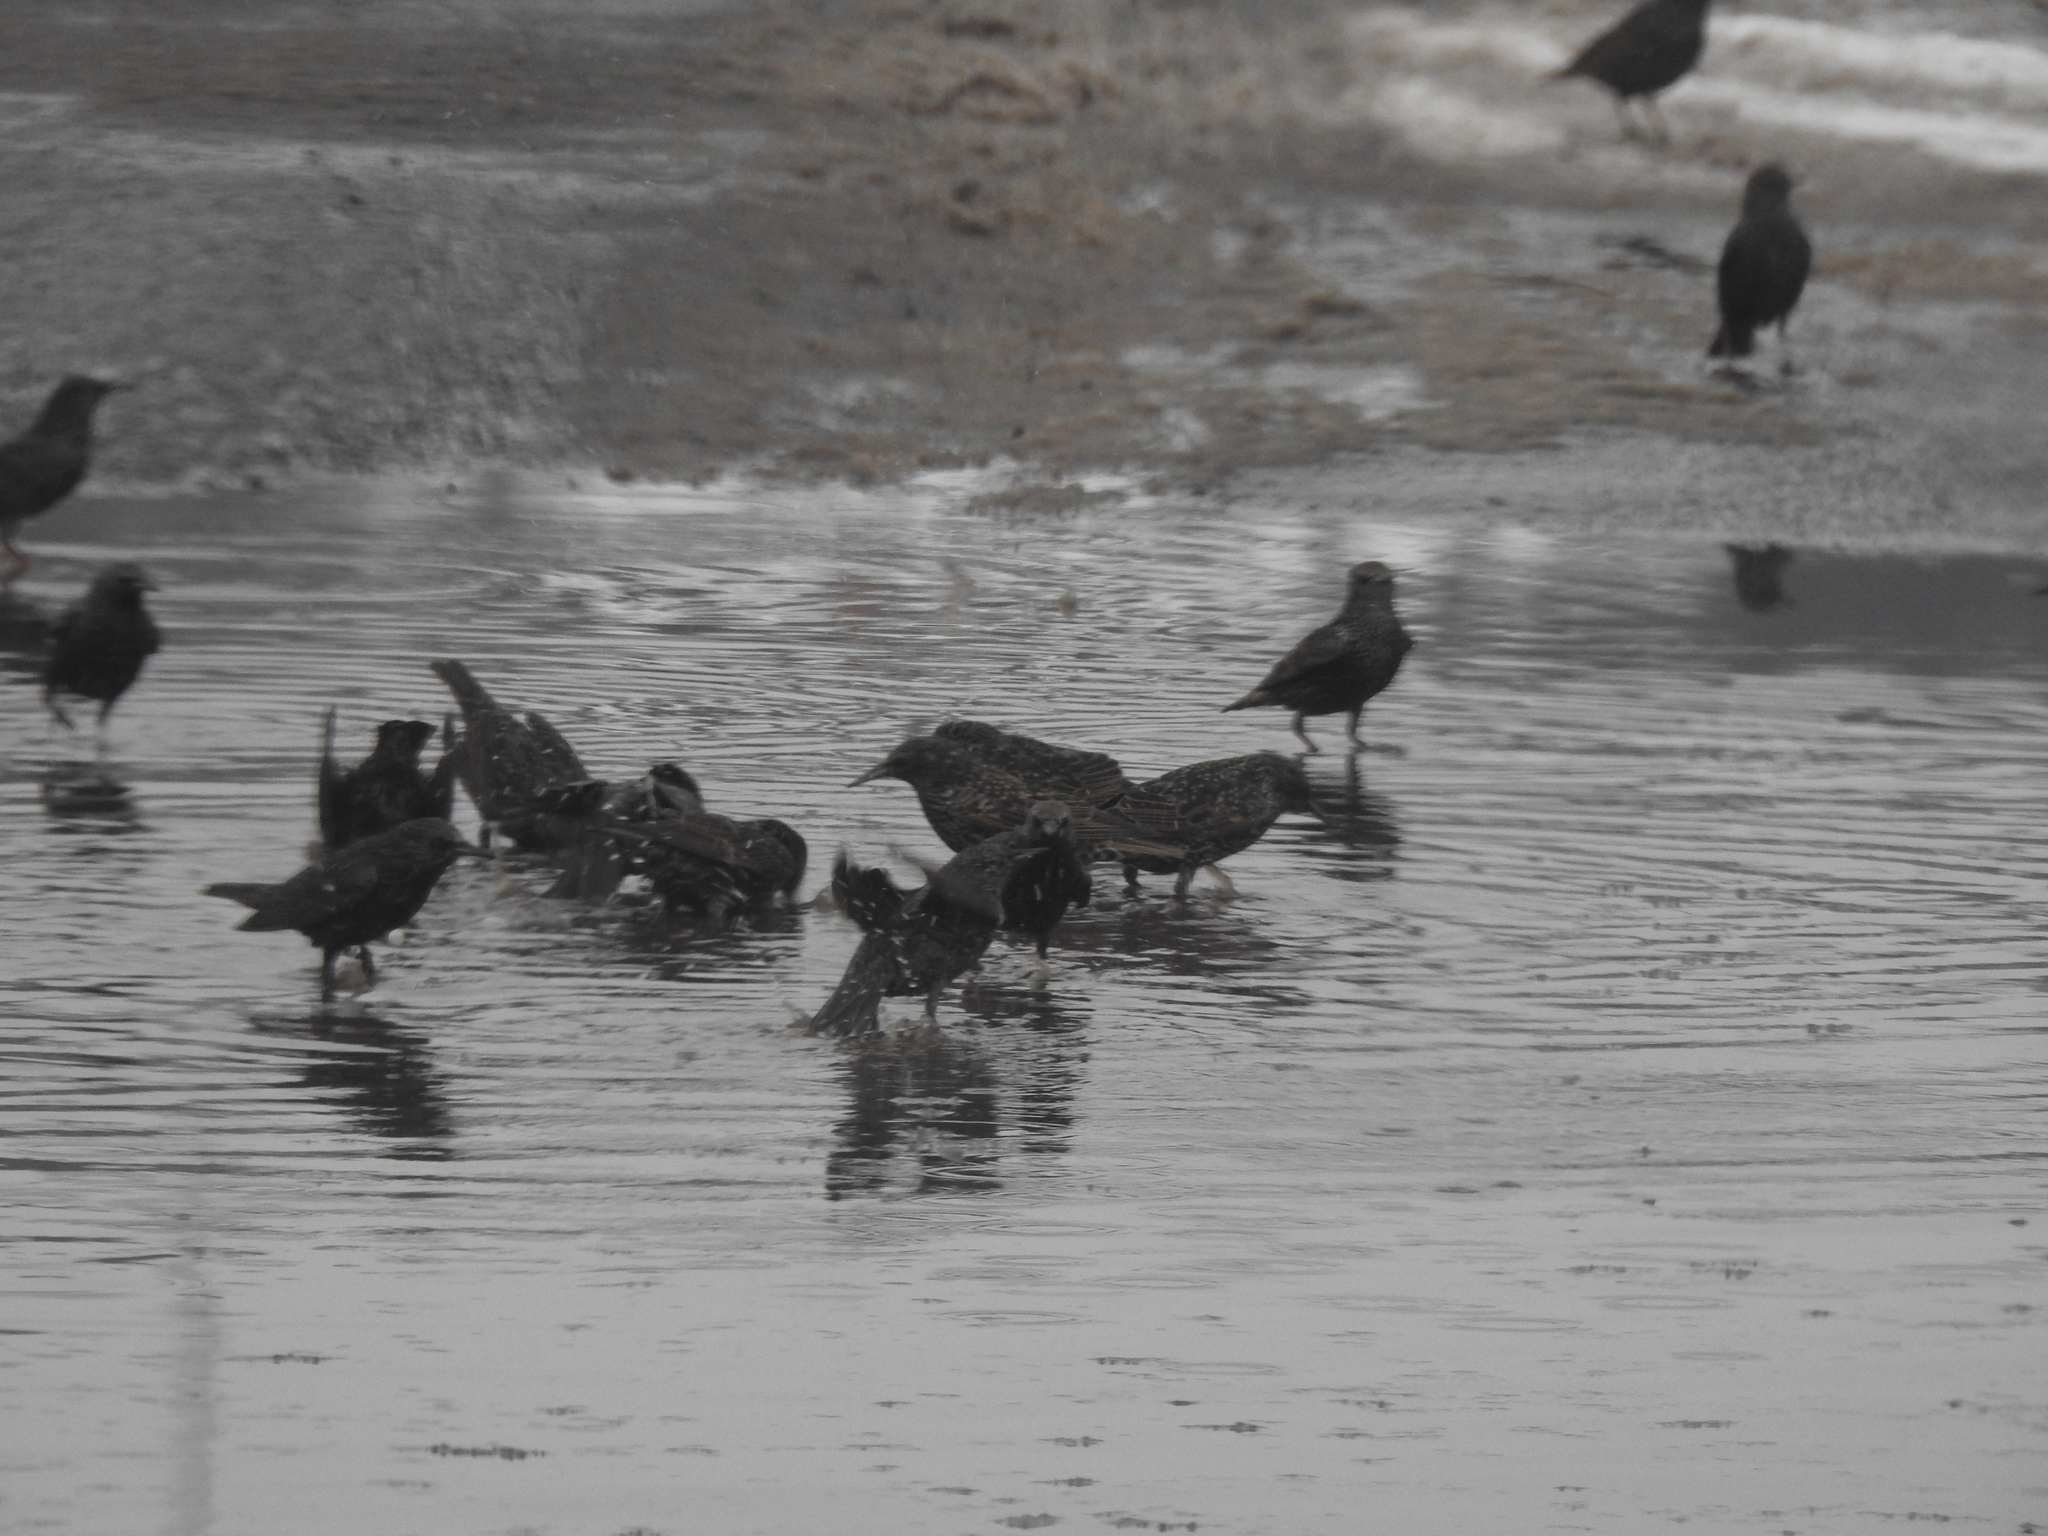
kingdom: Animalia
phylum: Chordata
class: Aves
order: Passeriformes
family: Sturnidae
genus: Sturnus
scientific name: Sturnus vulgaris
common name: Common starling
